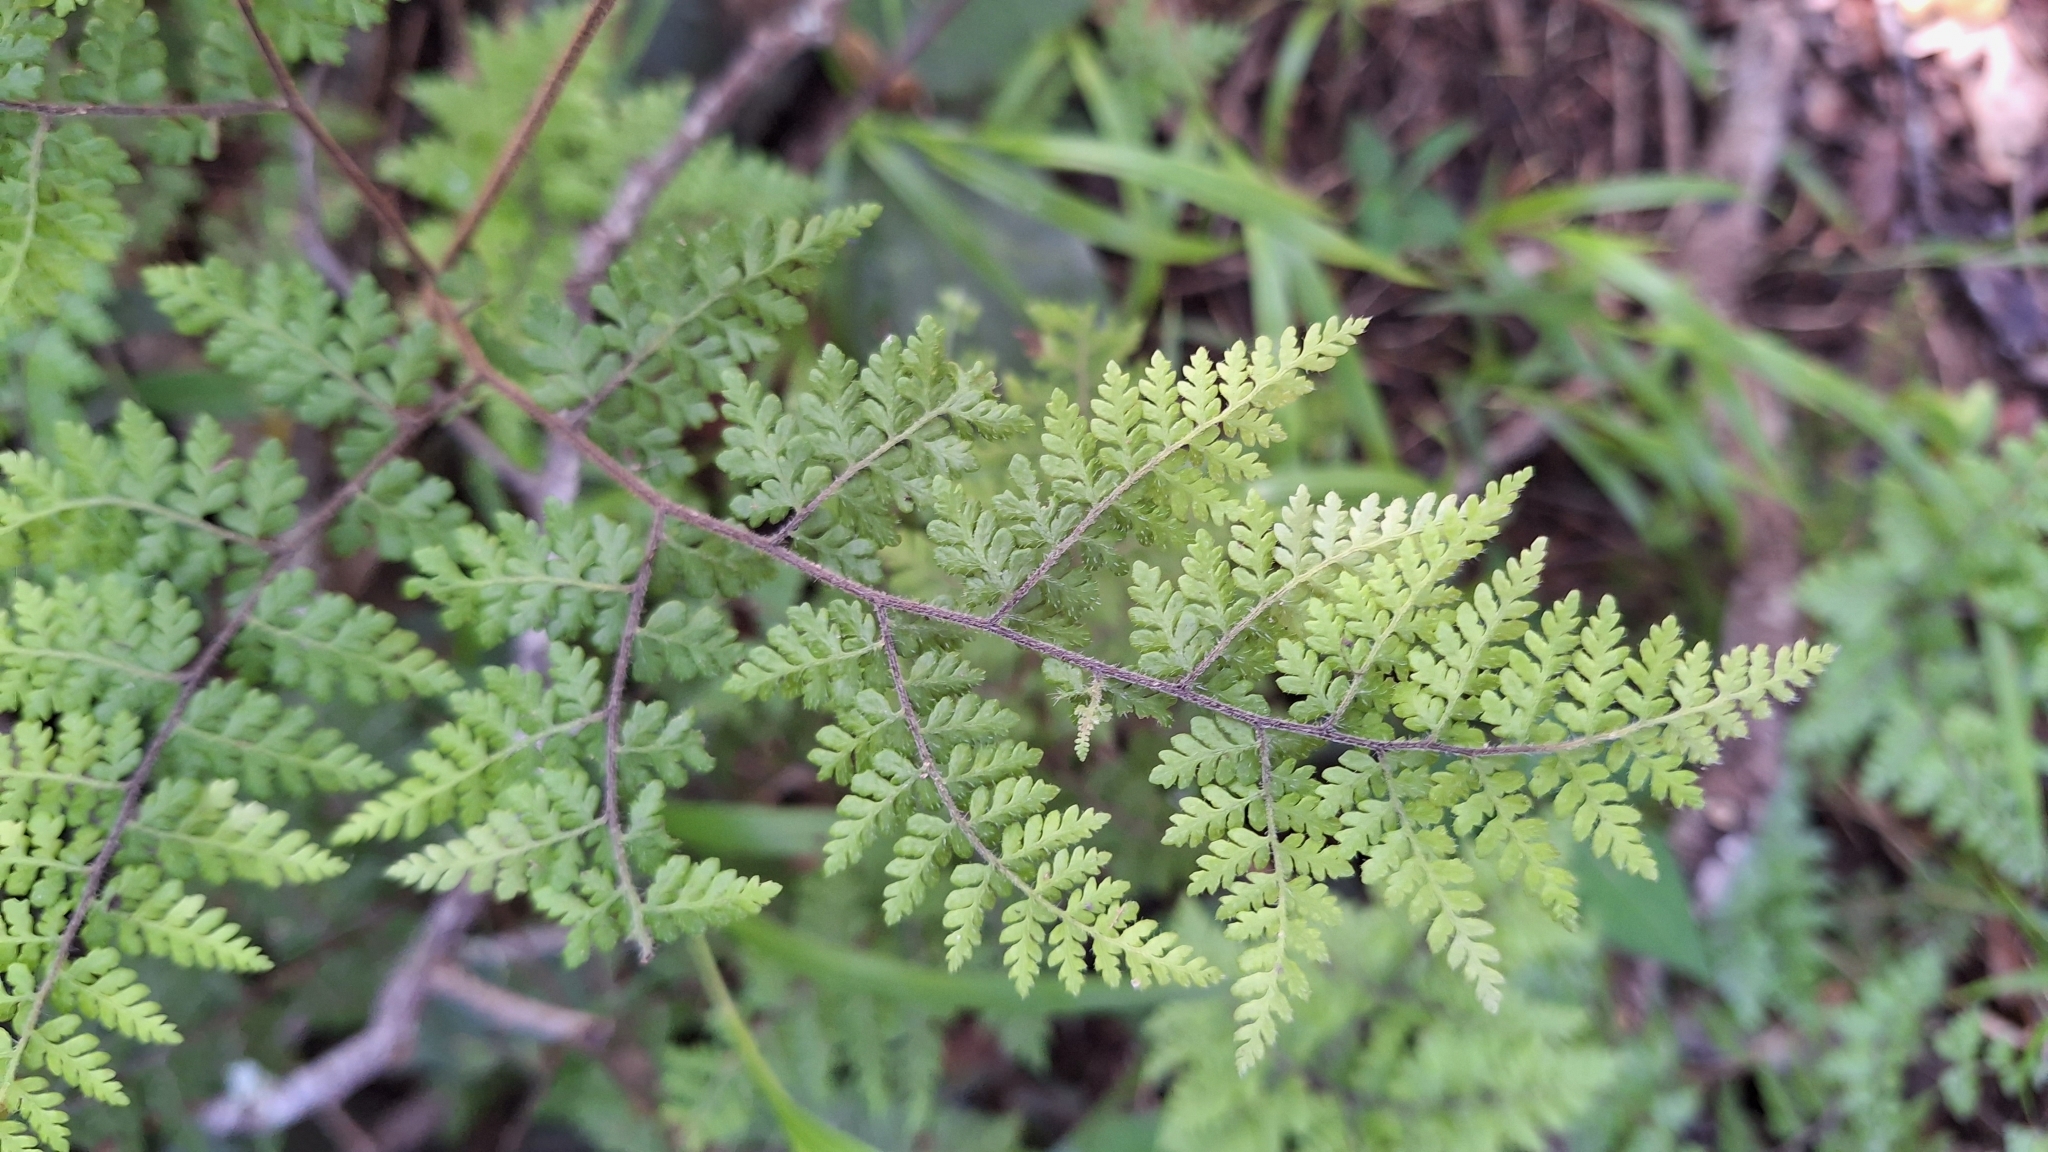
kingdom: Plantae
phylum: Tracheophyta
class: Polypodiopsida
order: Polypodiales
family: Pteridaceae
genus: Cheilanthes
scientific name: Cheilanthes bergiana
